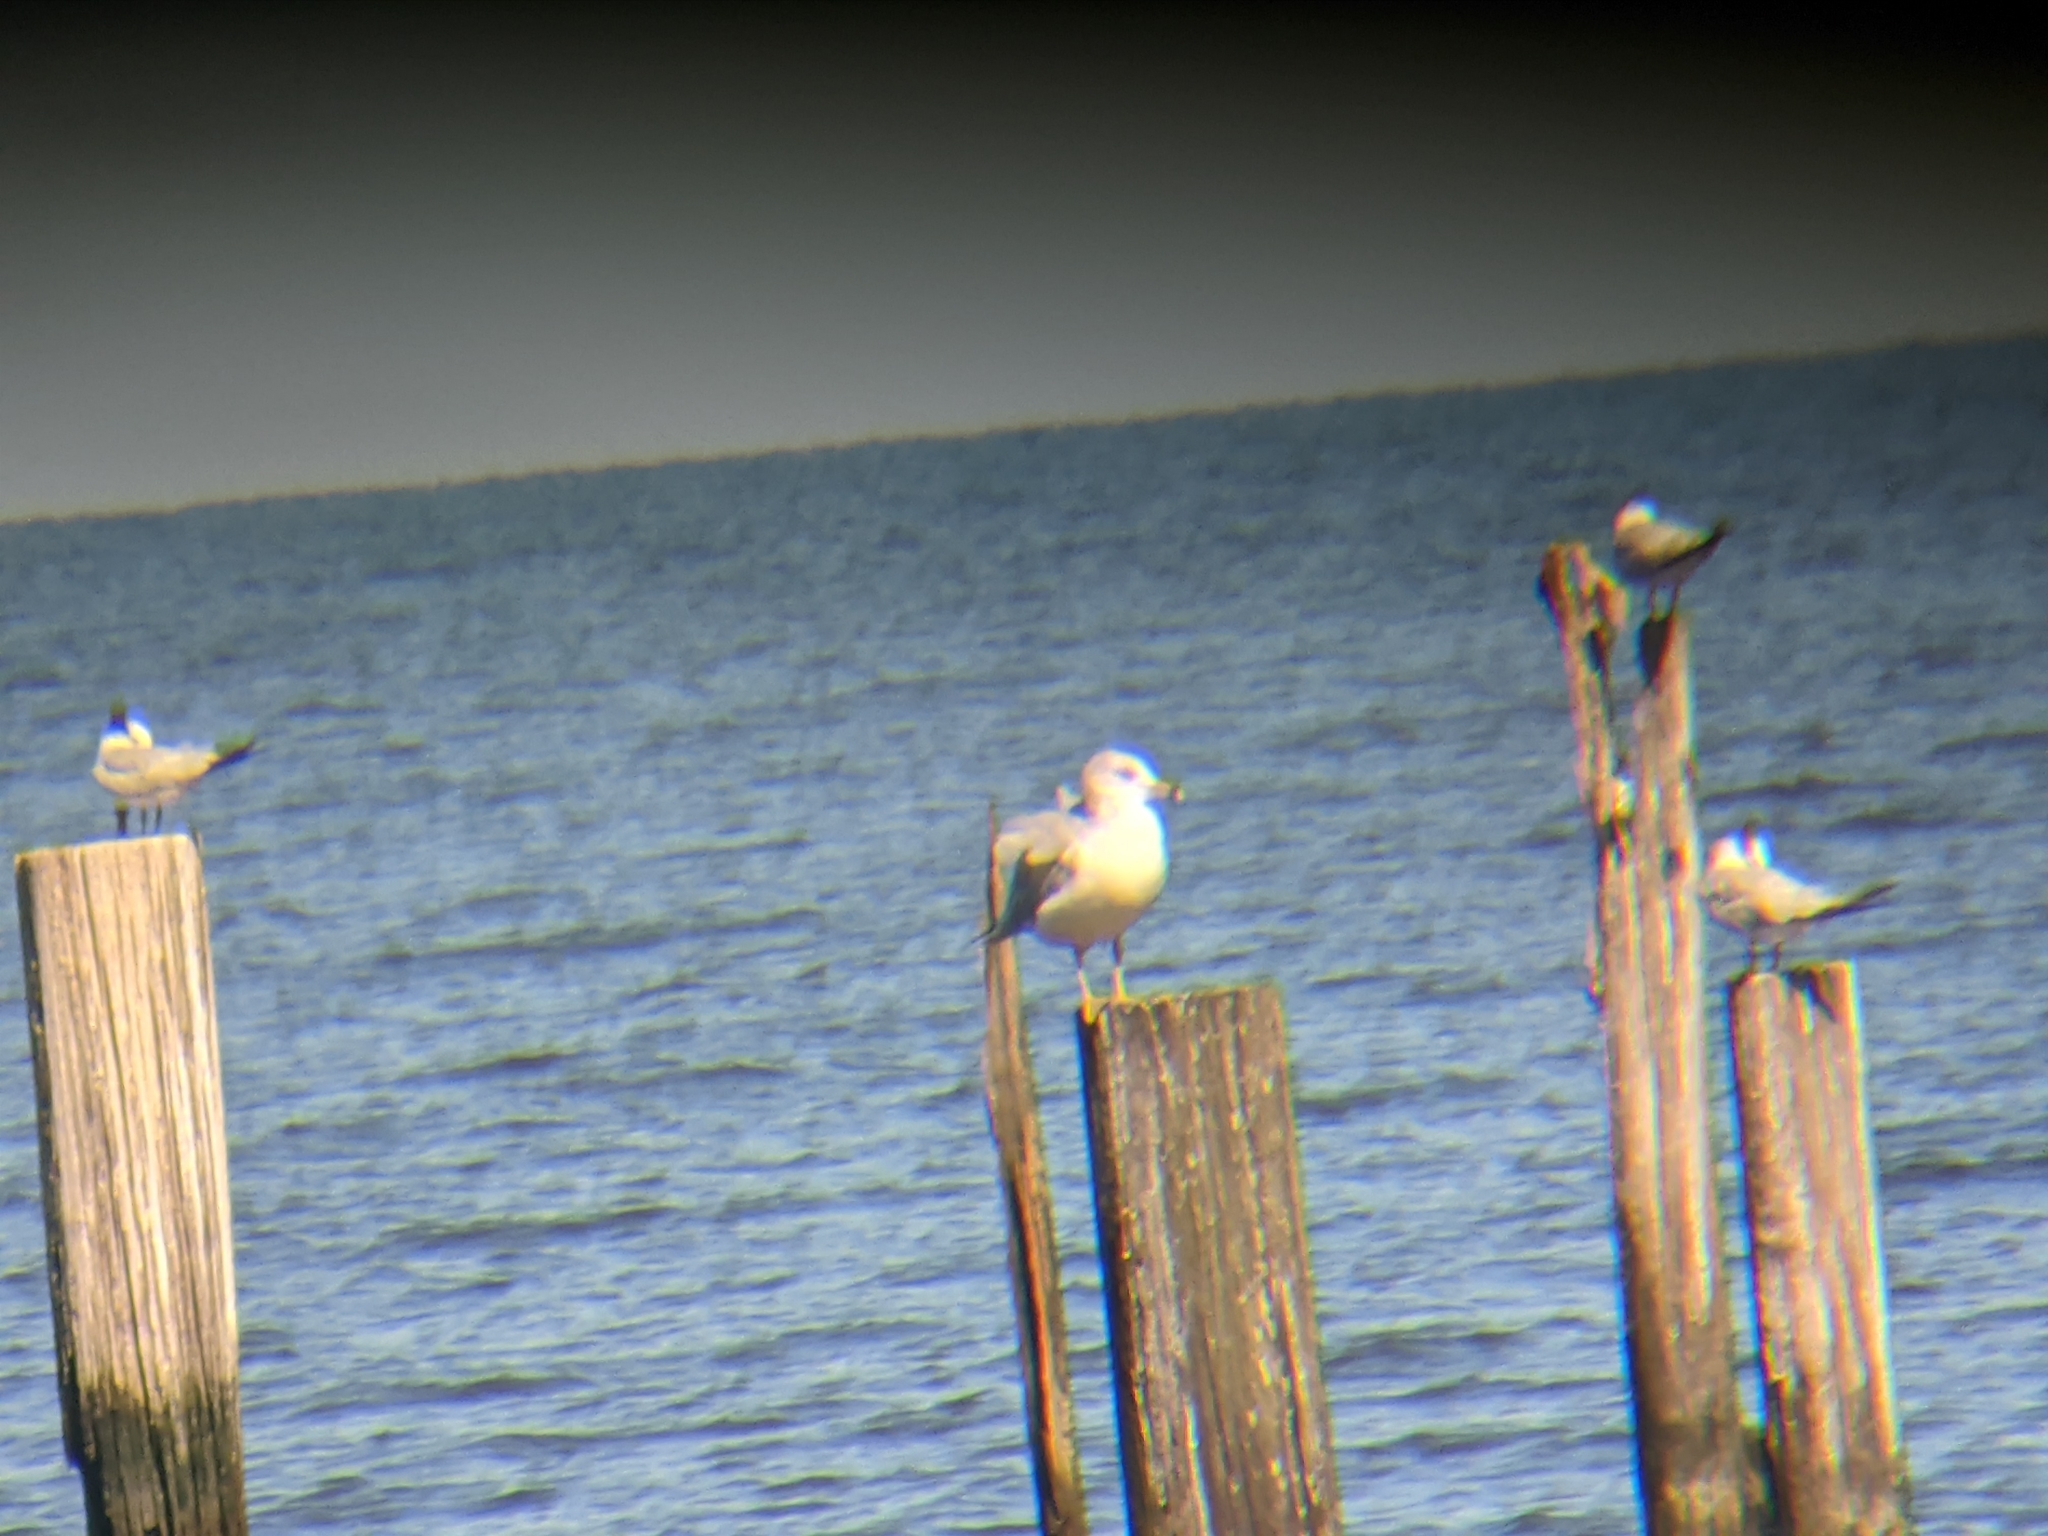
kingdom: Animalia
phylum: Chordata
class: Aves
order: Charadriiformes
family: Laridae
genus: Larus
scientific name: Larus delawarensis
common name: Ring-billed gull
